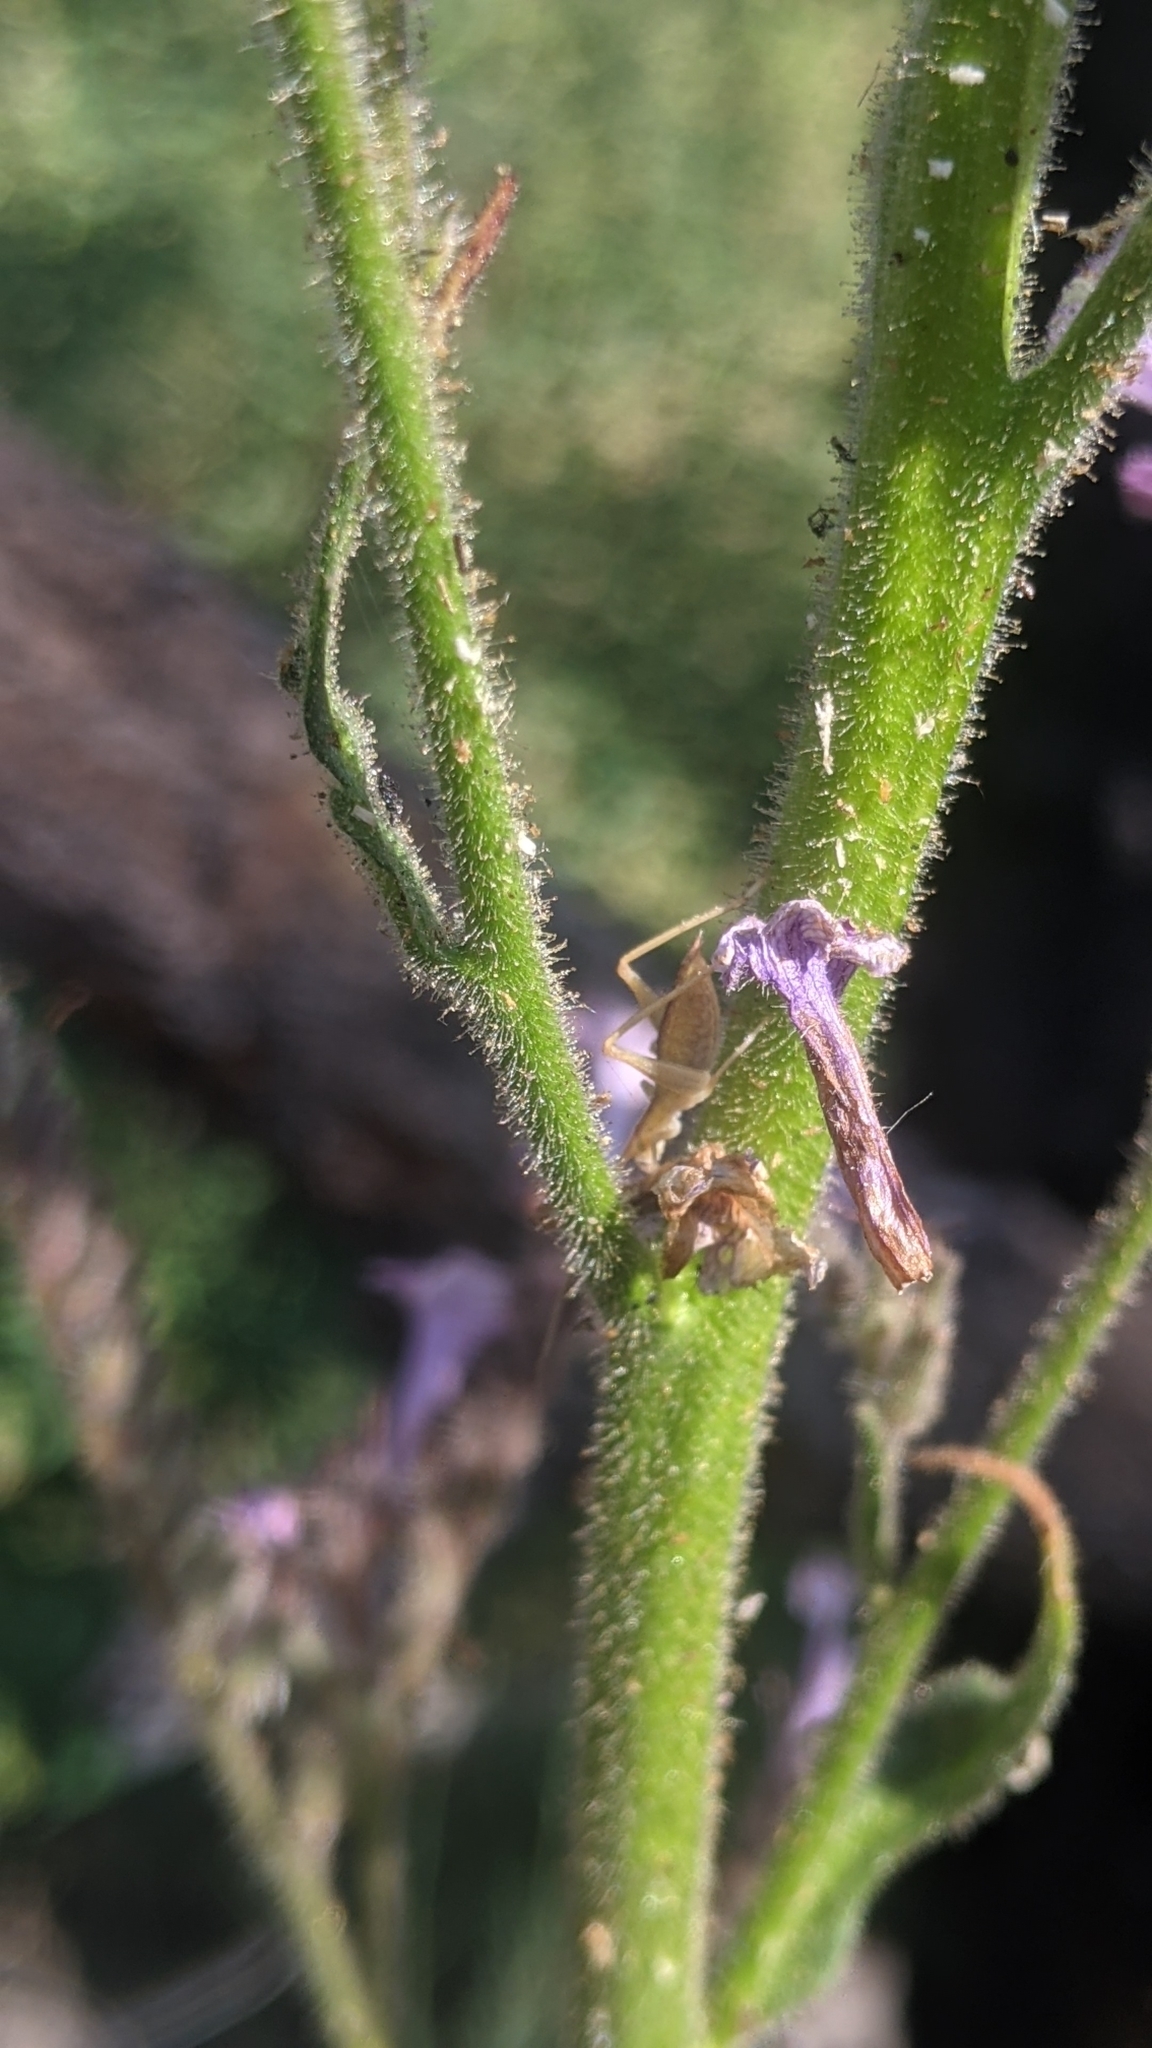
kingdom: Animalia
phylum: Arthropoda
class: Insecta
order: Orthoptera
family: Gryllidae
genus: Oecanthus
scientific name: Oecanthus californicus
